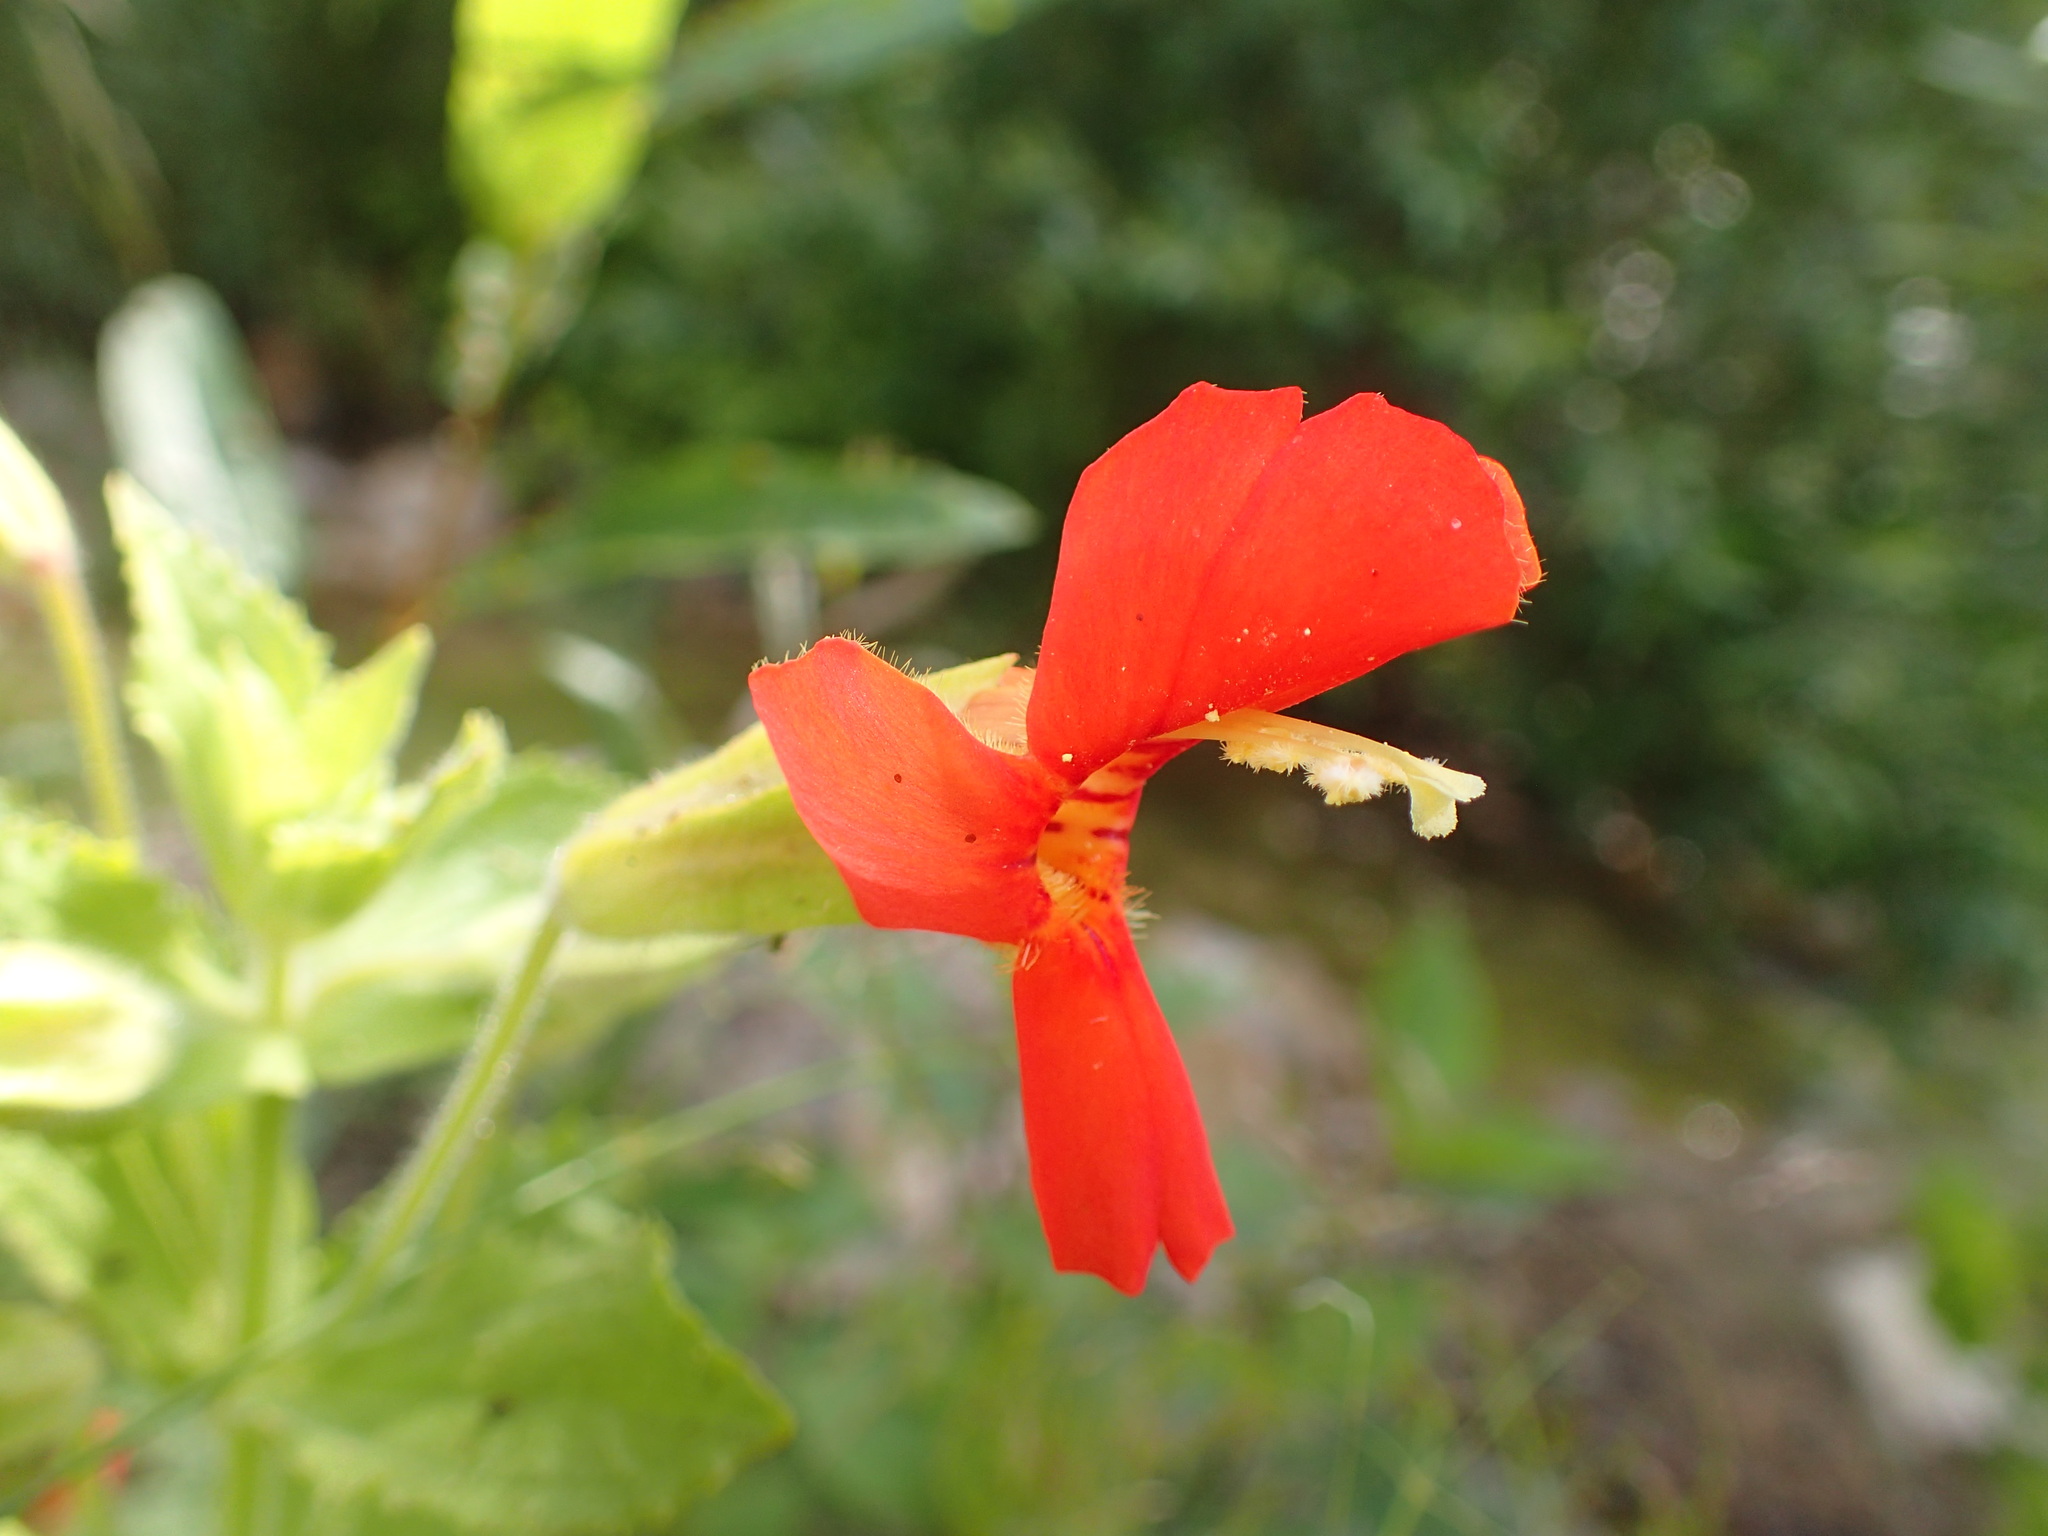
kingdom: Plantae
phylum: Tracheophyta
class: Magnoliopsida
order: Lamiales
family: Phrymaceae
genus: Erythranthe
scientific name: Erythranthe cardinalis
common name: Scarlet monkey-flower
